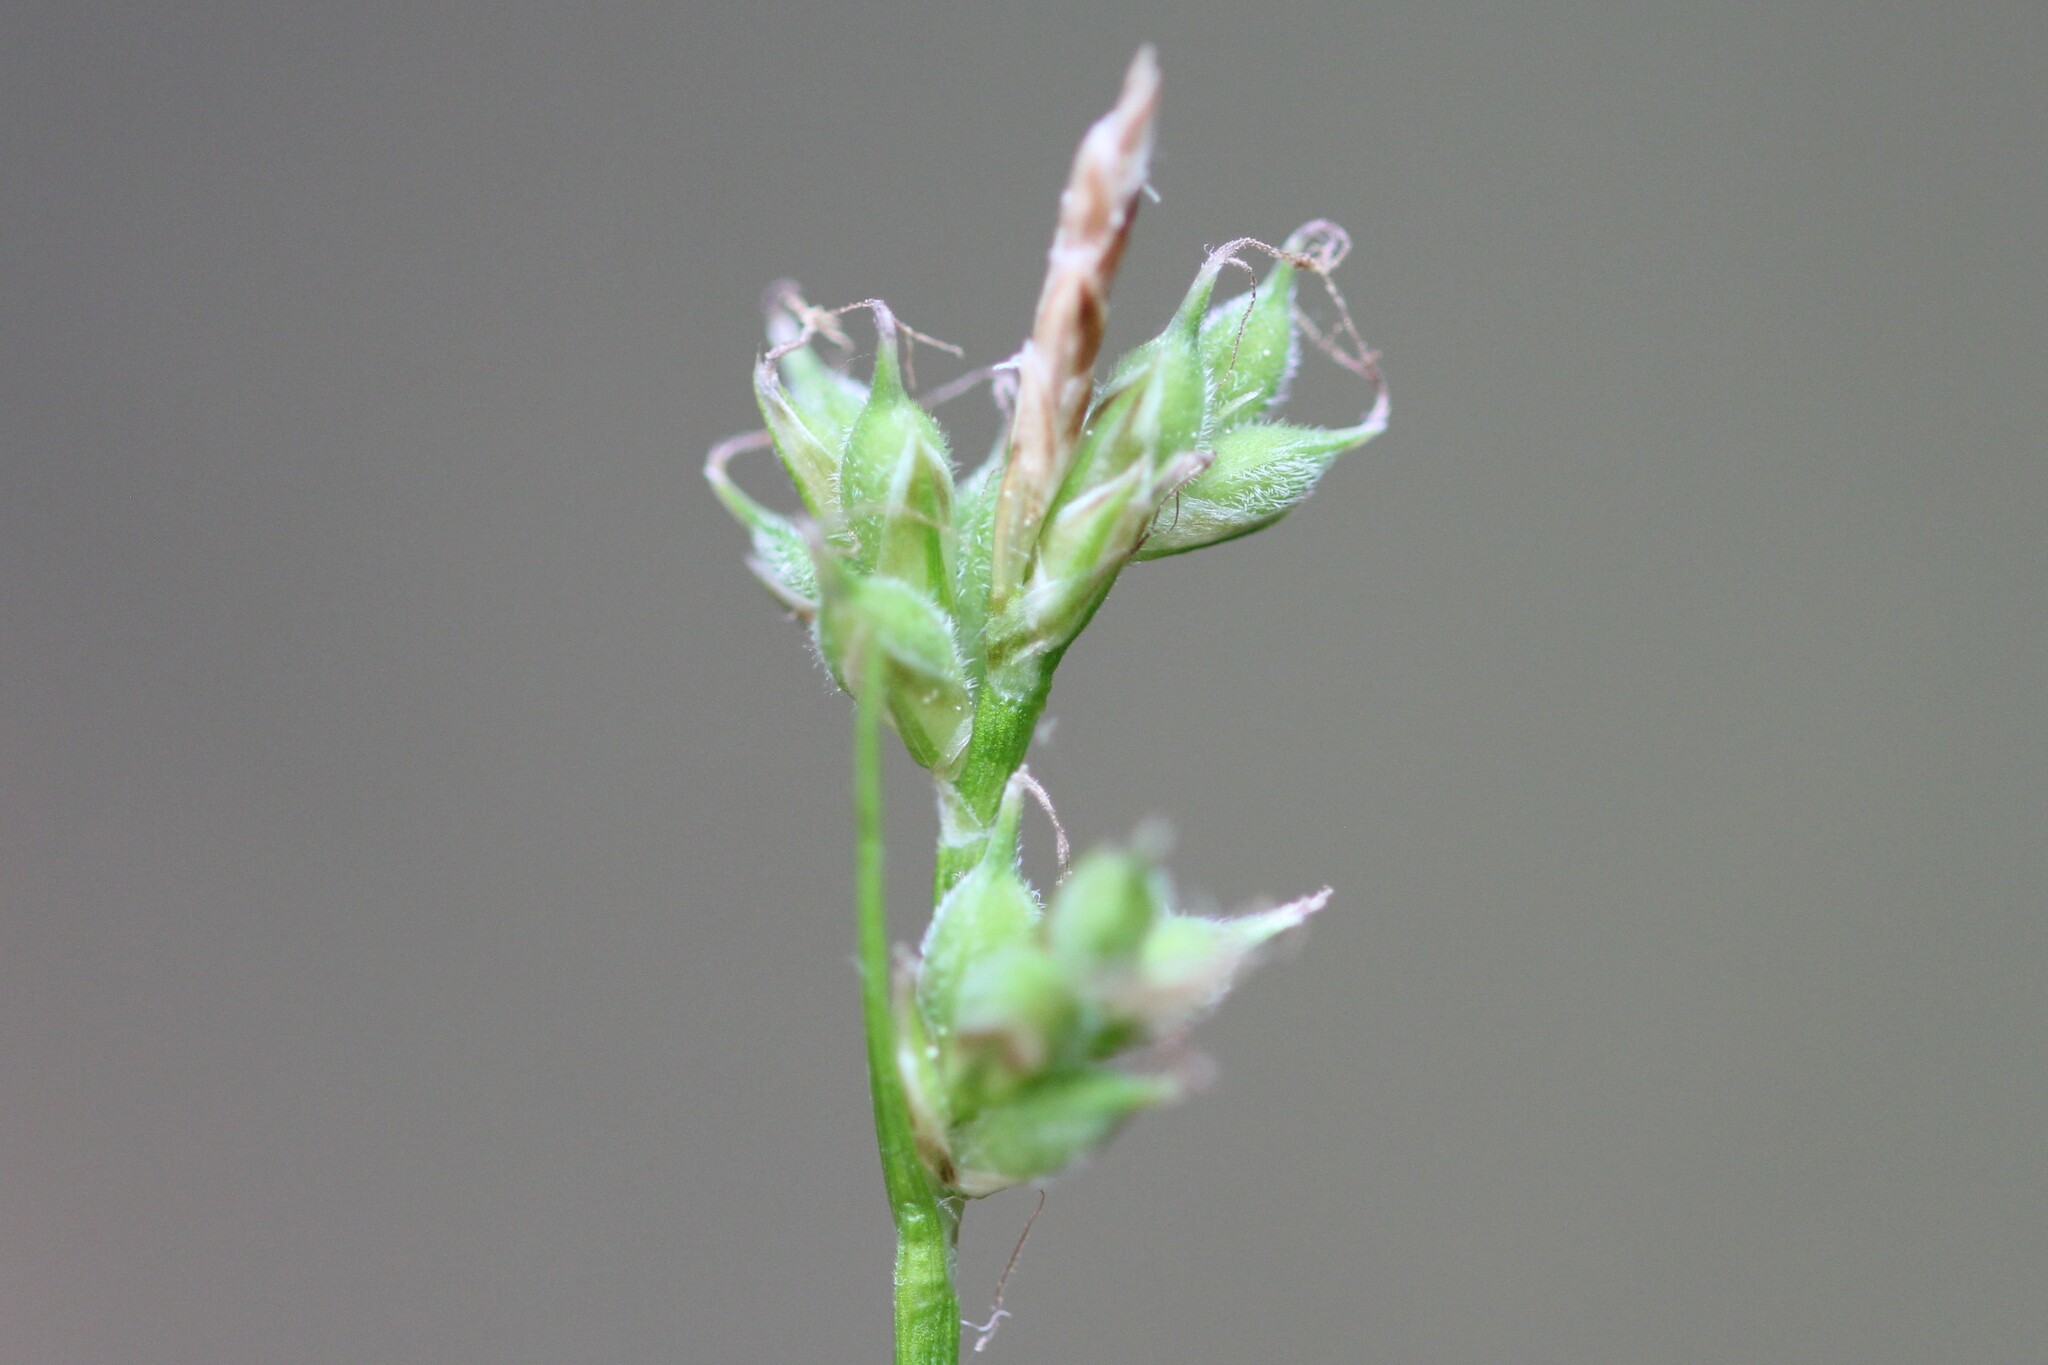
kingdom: Plantae
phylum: Tracheophyta
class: Liliopsida
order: Poales
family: Cyperaceae
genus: Carex
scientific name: Carex peckii
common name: Peck's oak sedge
